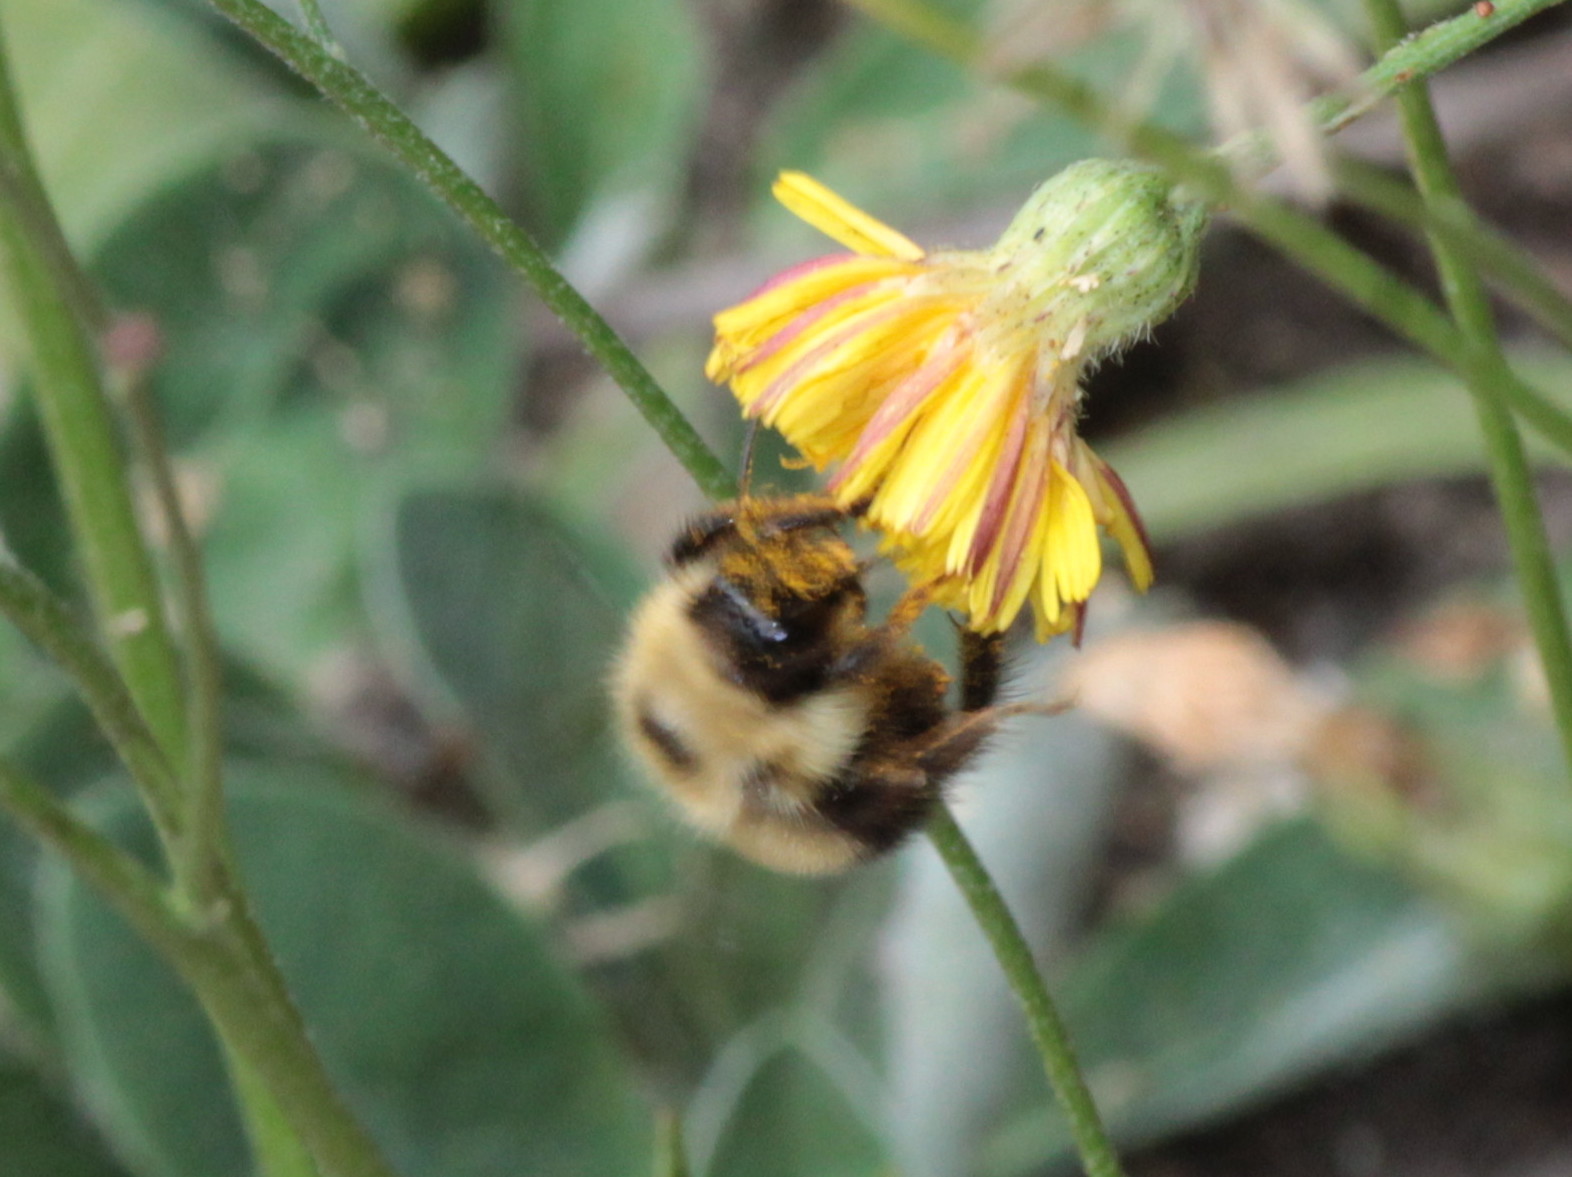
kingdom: Animalia
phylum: Arthropoda
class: Insecta
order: Hymenoptera
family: Apidae
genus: Pyrobombus
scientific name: Pyrobombus
